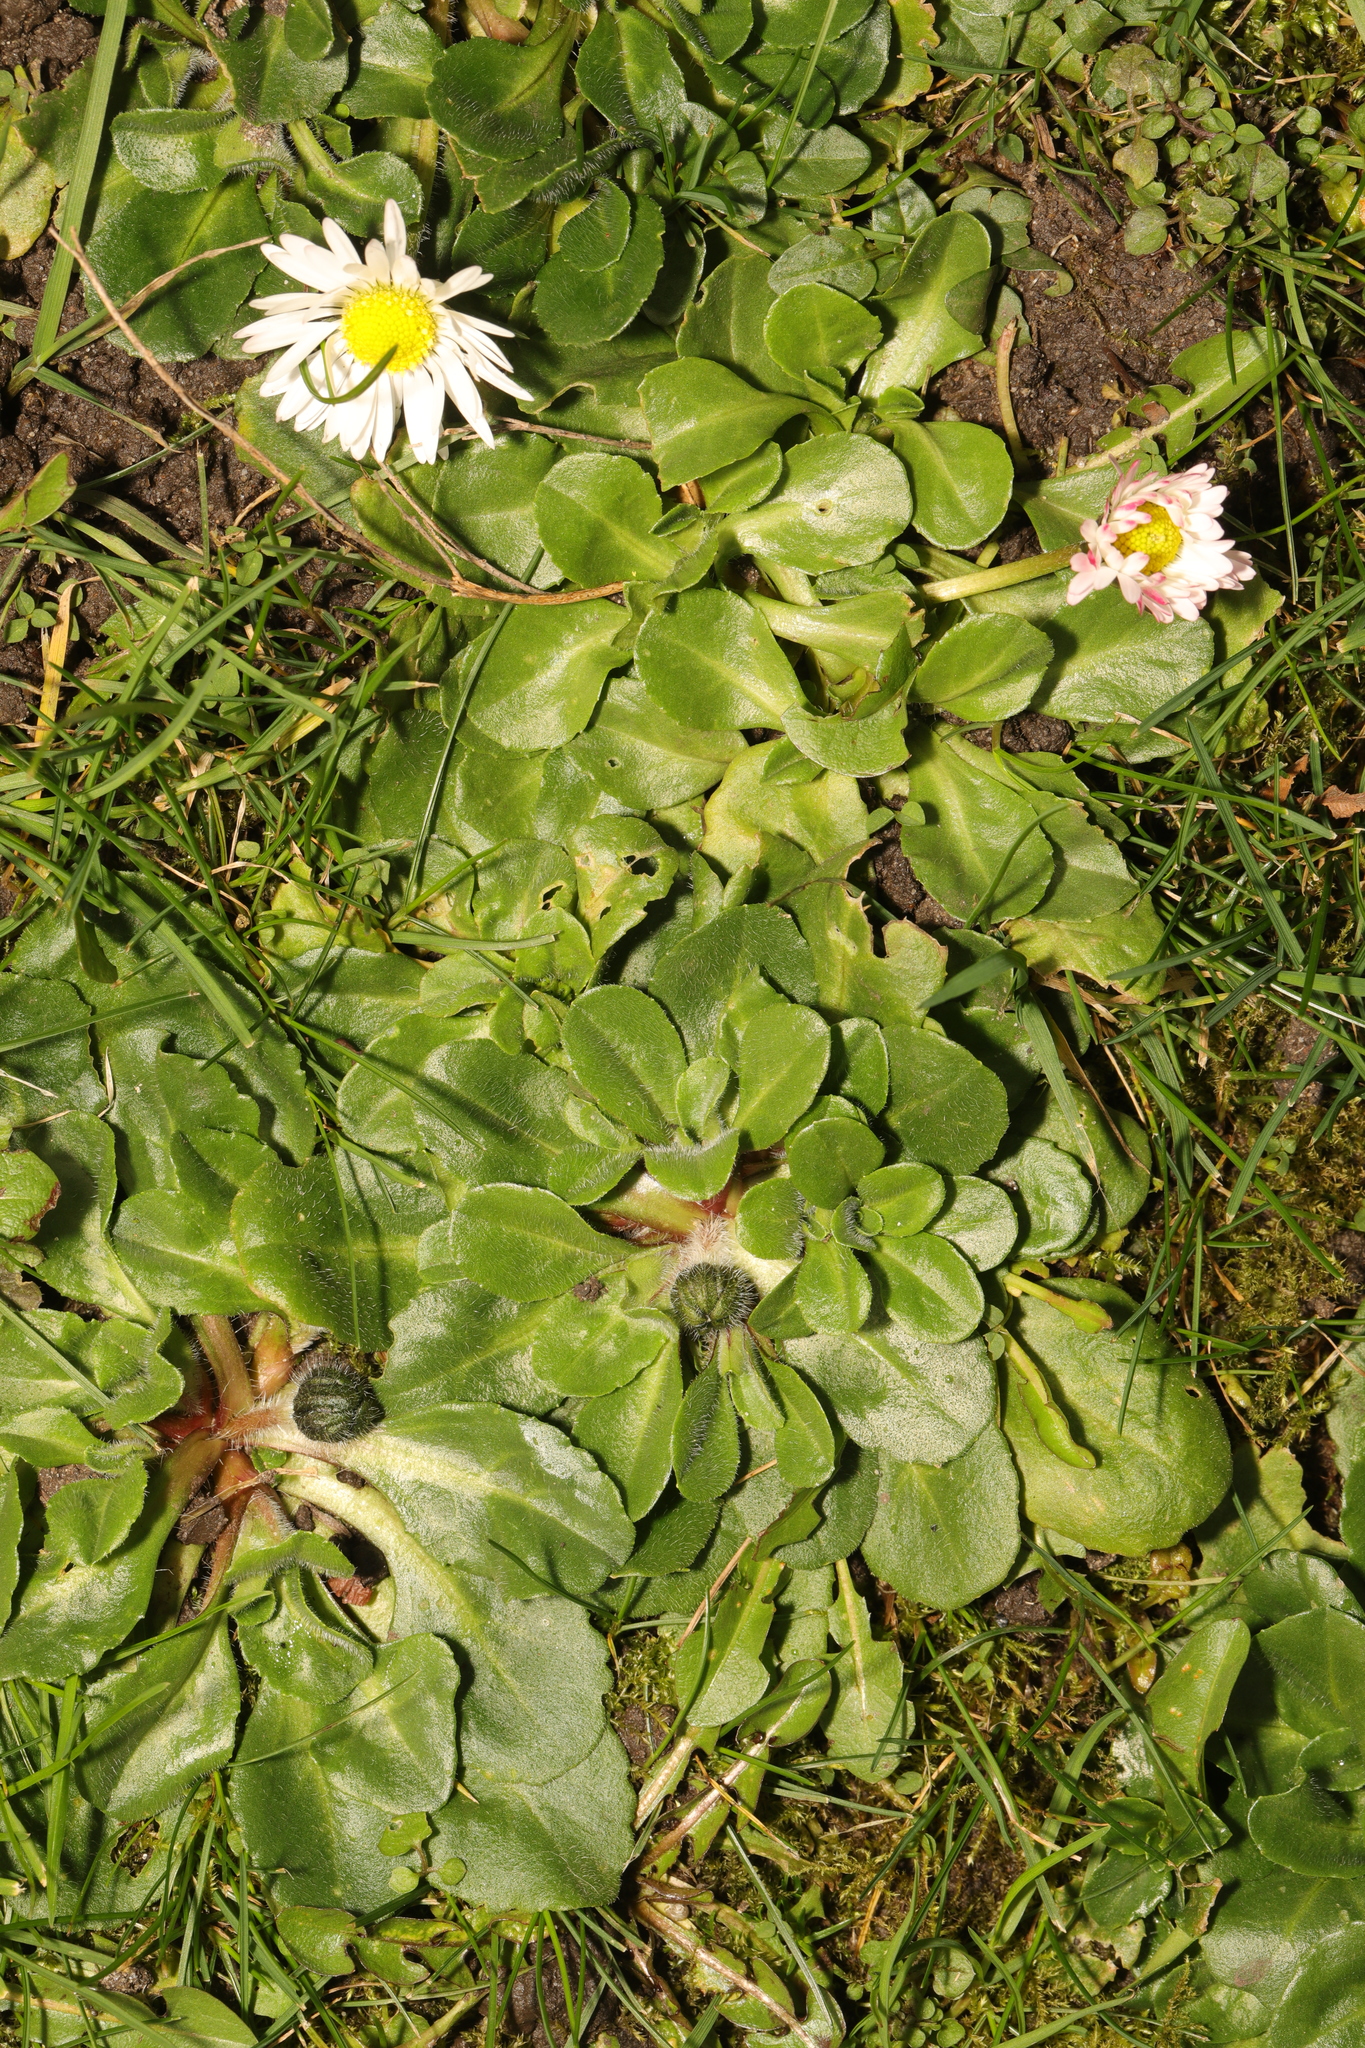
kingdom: Plantae
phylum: Tracheophyta
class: Magnoliopsida
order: Asterales
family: Asteraceae
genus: Bellis
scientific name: Bellis perennis
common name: Lawndaisy
